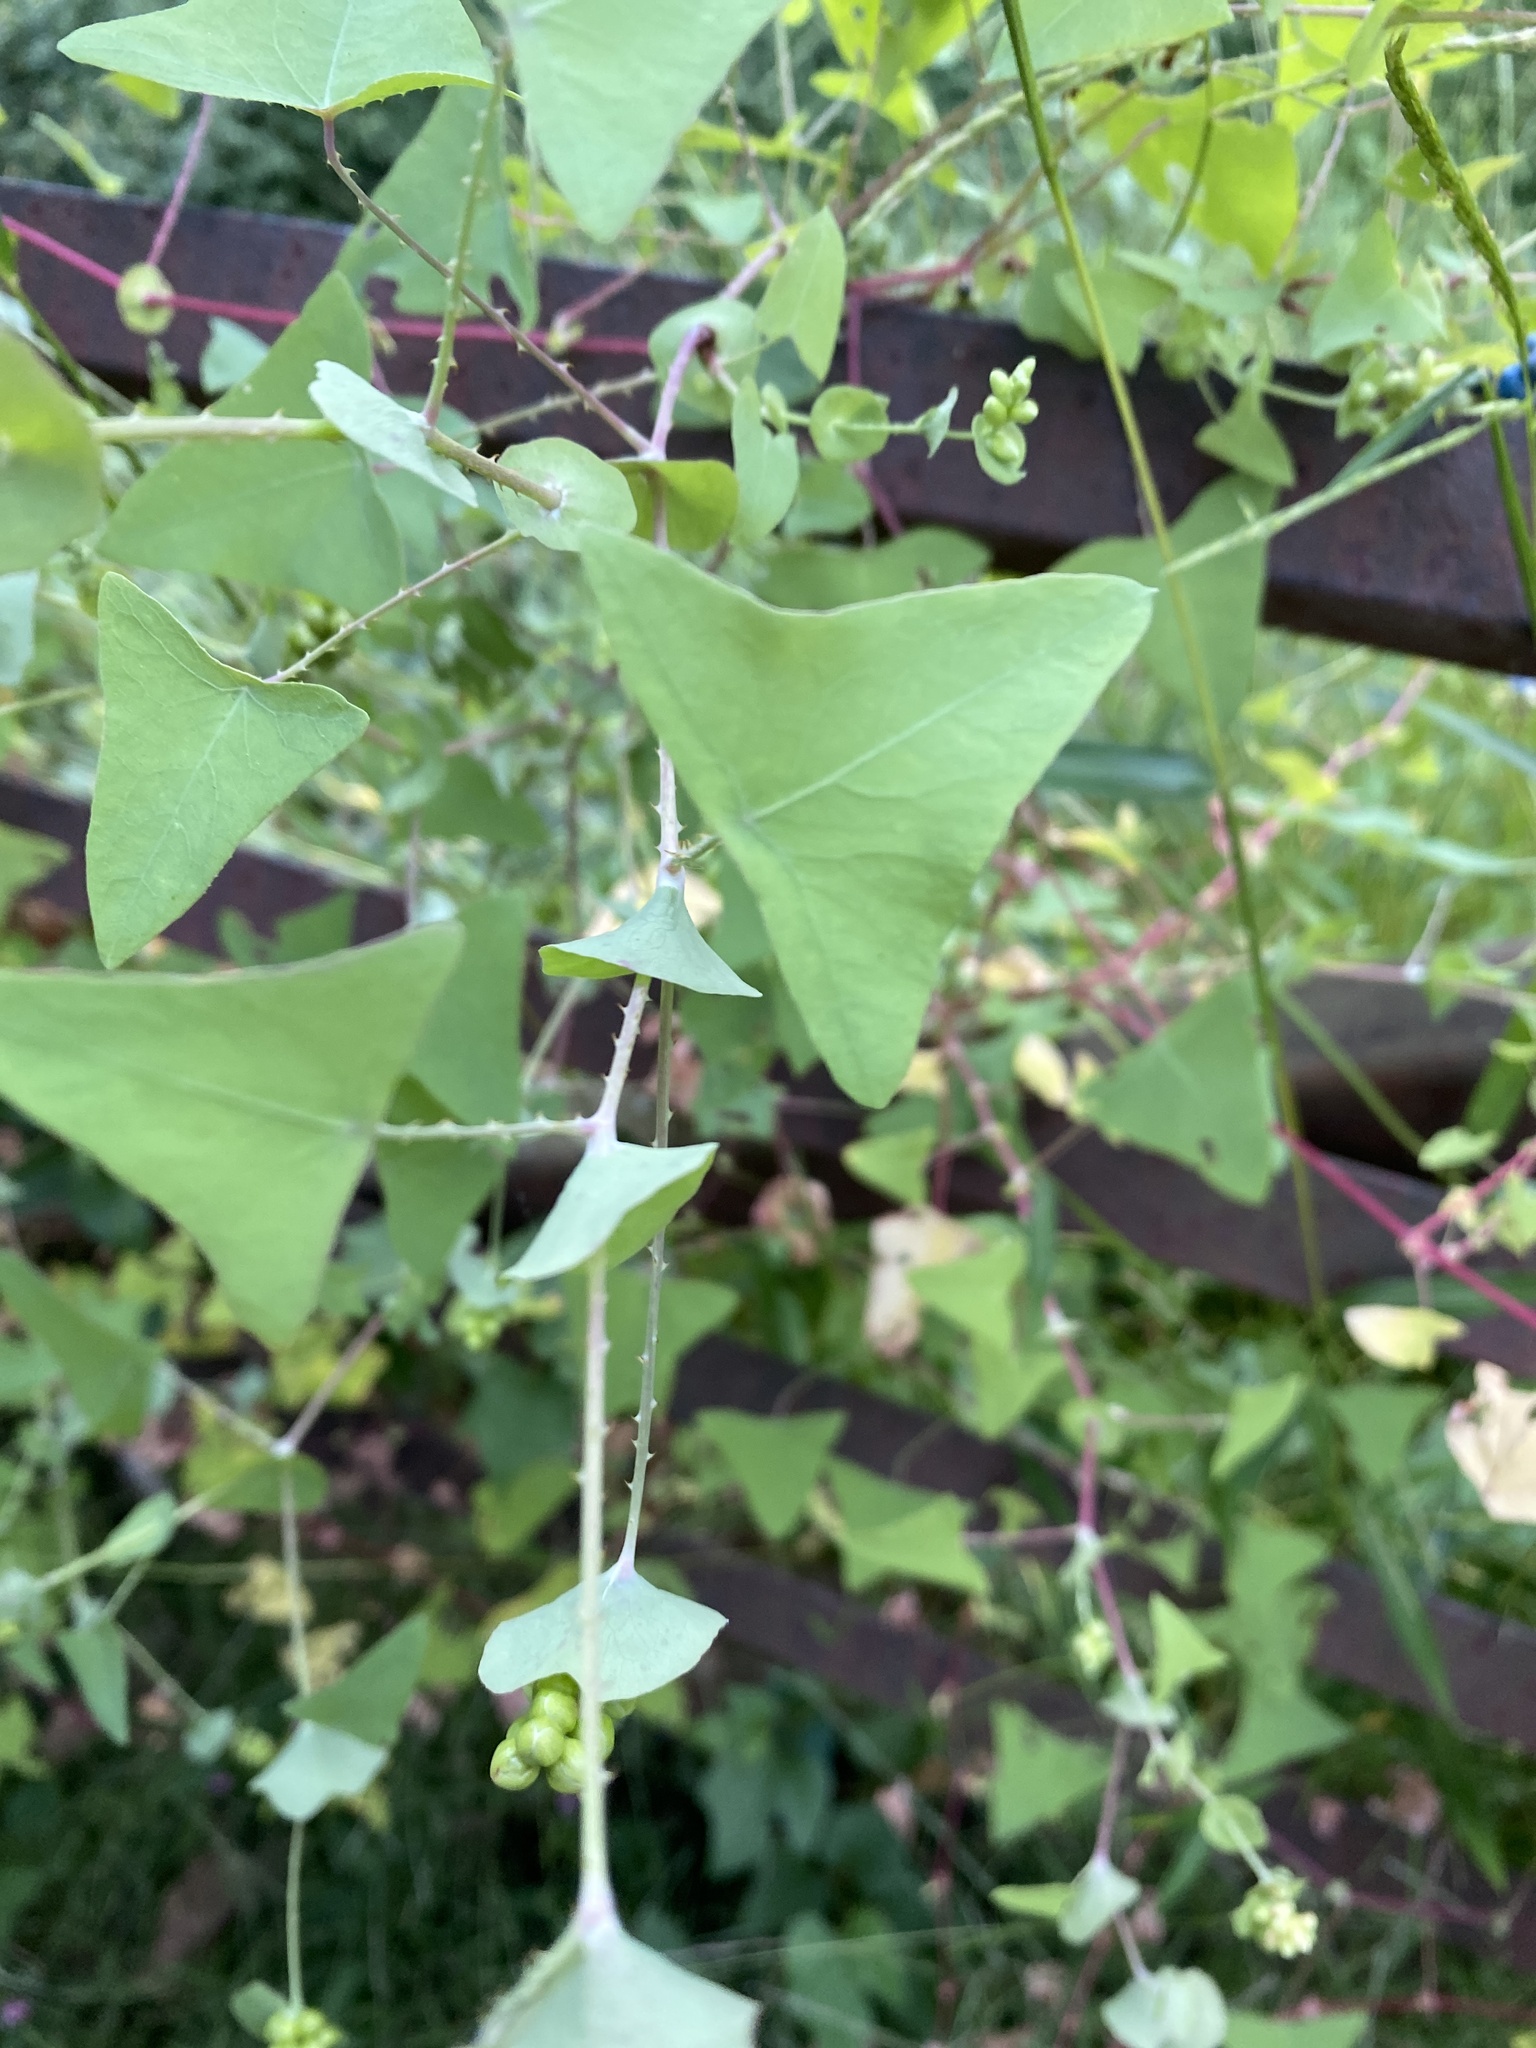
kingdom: Plantae
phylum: Tracheophyta
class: Magnoliopsida
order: Caryophyllales
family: Polygonaceae
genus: Persicaria
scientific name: Persicaria perfoliata
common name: Asiatic tearthumb
